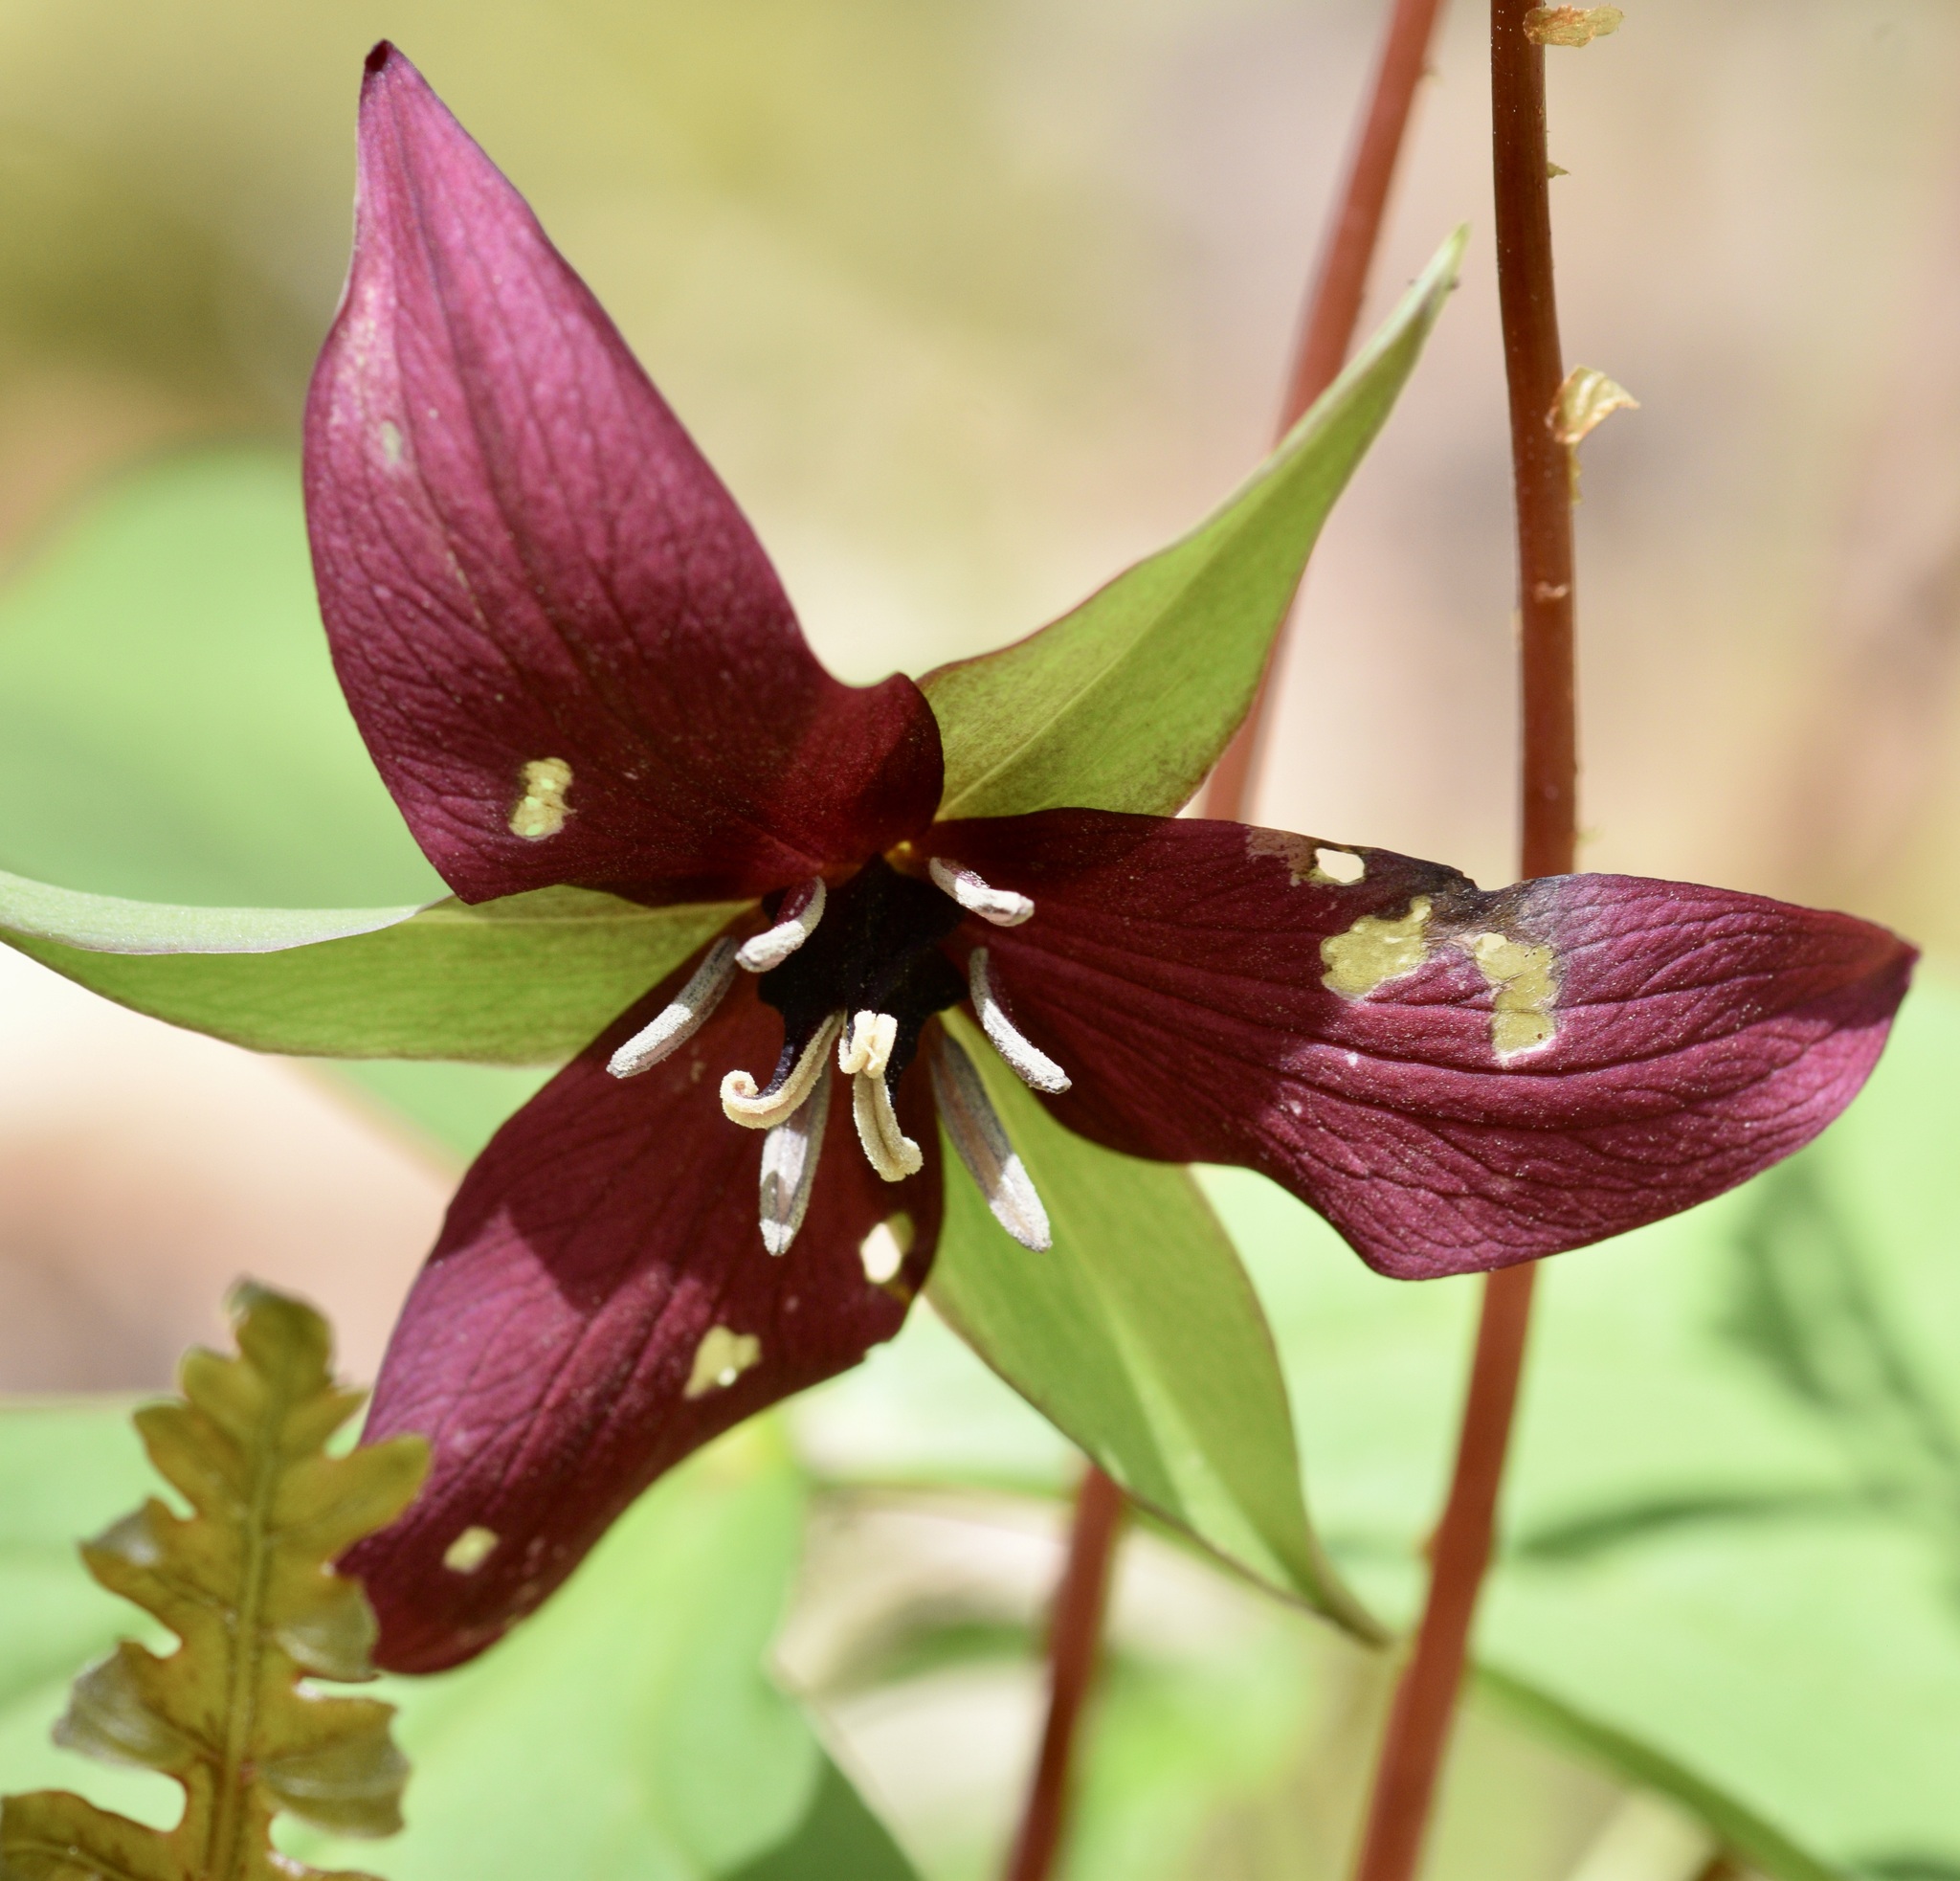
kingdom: Plantae
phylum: Tracheophyta
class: Liliopsida
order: Liliales
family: Melanthiaceae
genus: Trillium
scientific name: Trillium erectum
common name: Purple trillium
